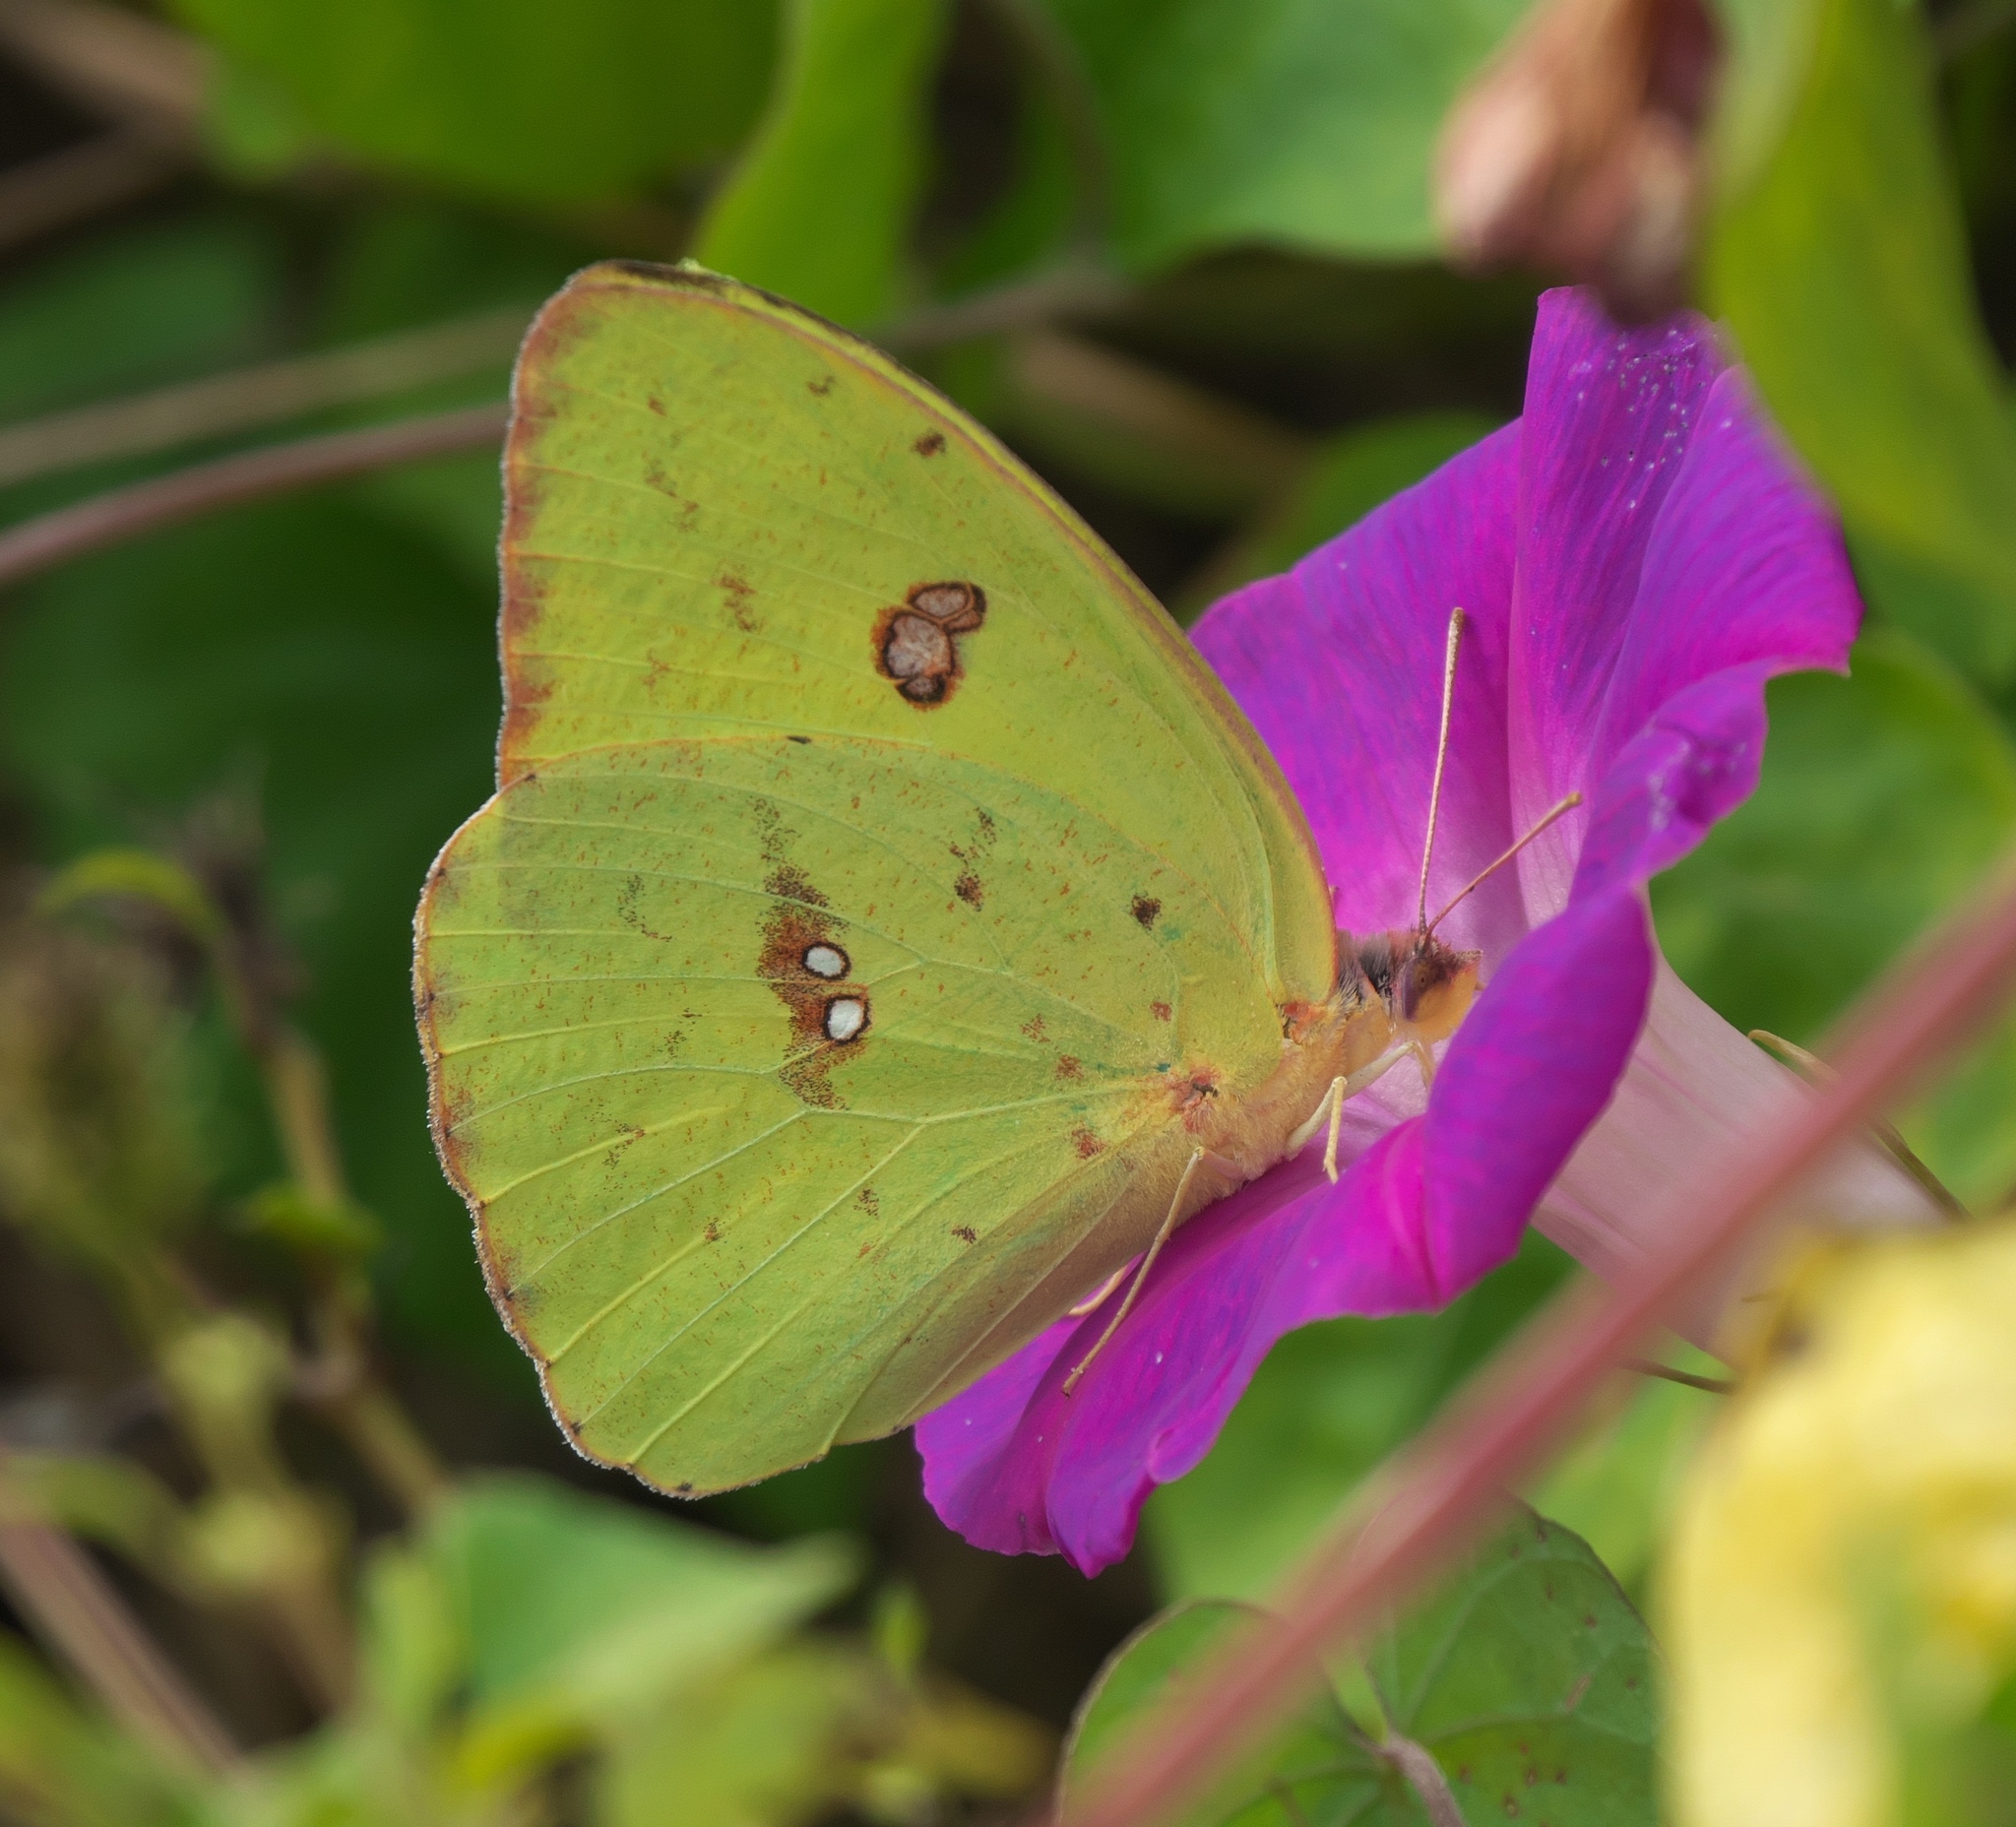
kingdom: Animalia
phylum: Arthropoda
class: Insecta
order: Lepidoptera
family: Pieridae
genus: Phoebis
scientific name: Phoebis sennae
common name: Cloudless sulphur
